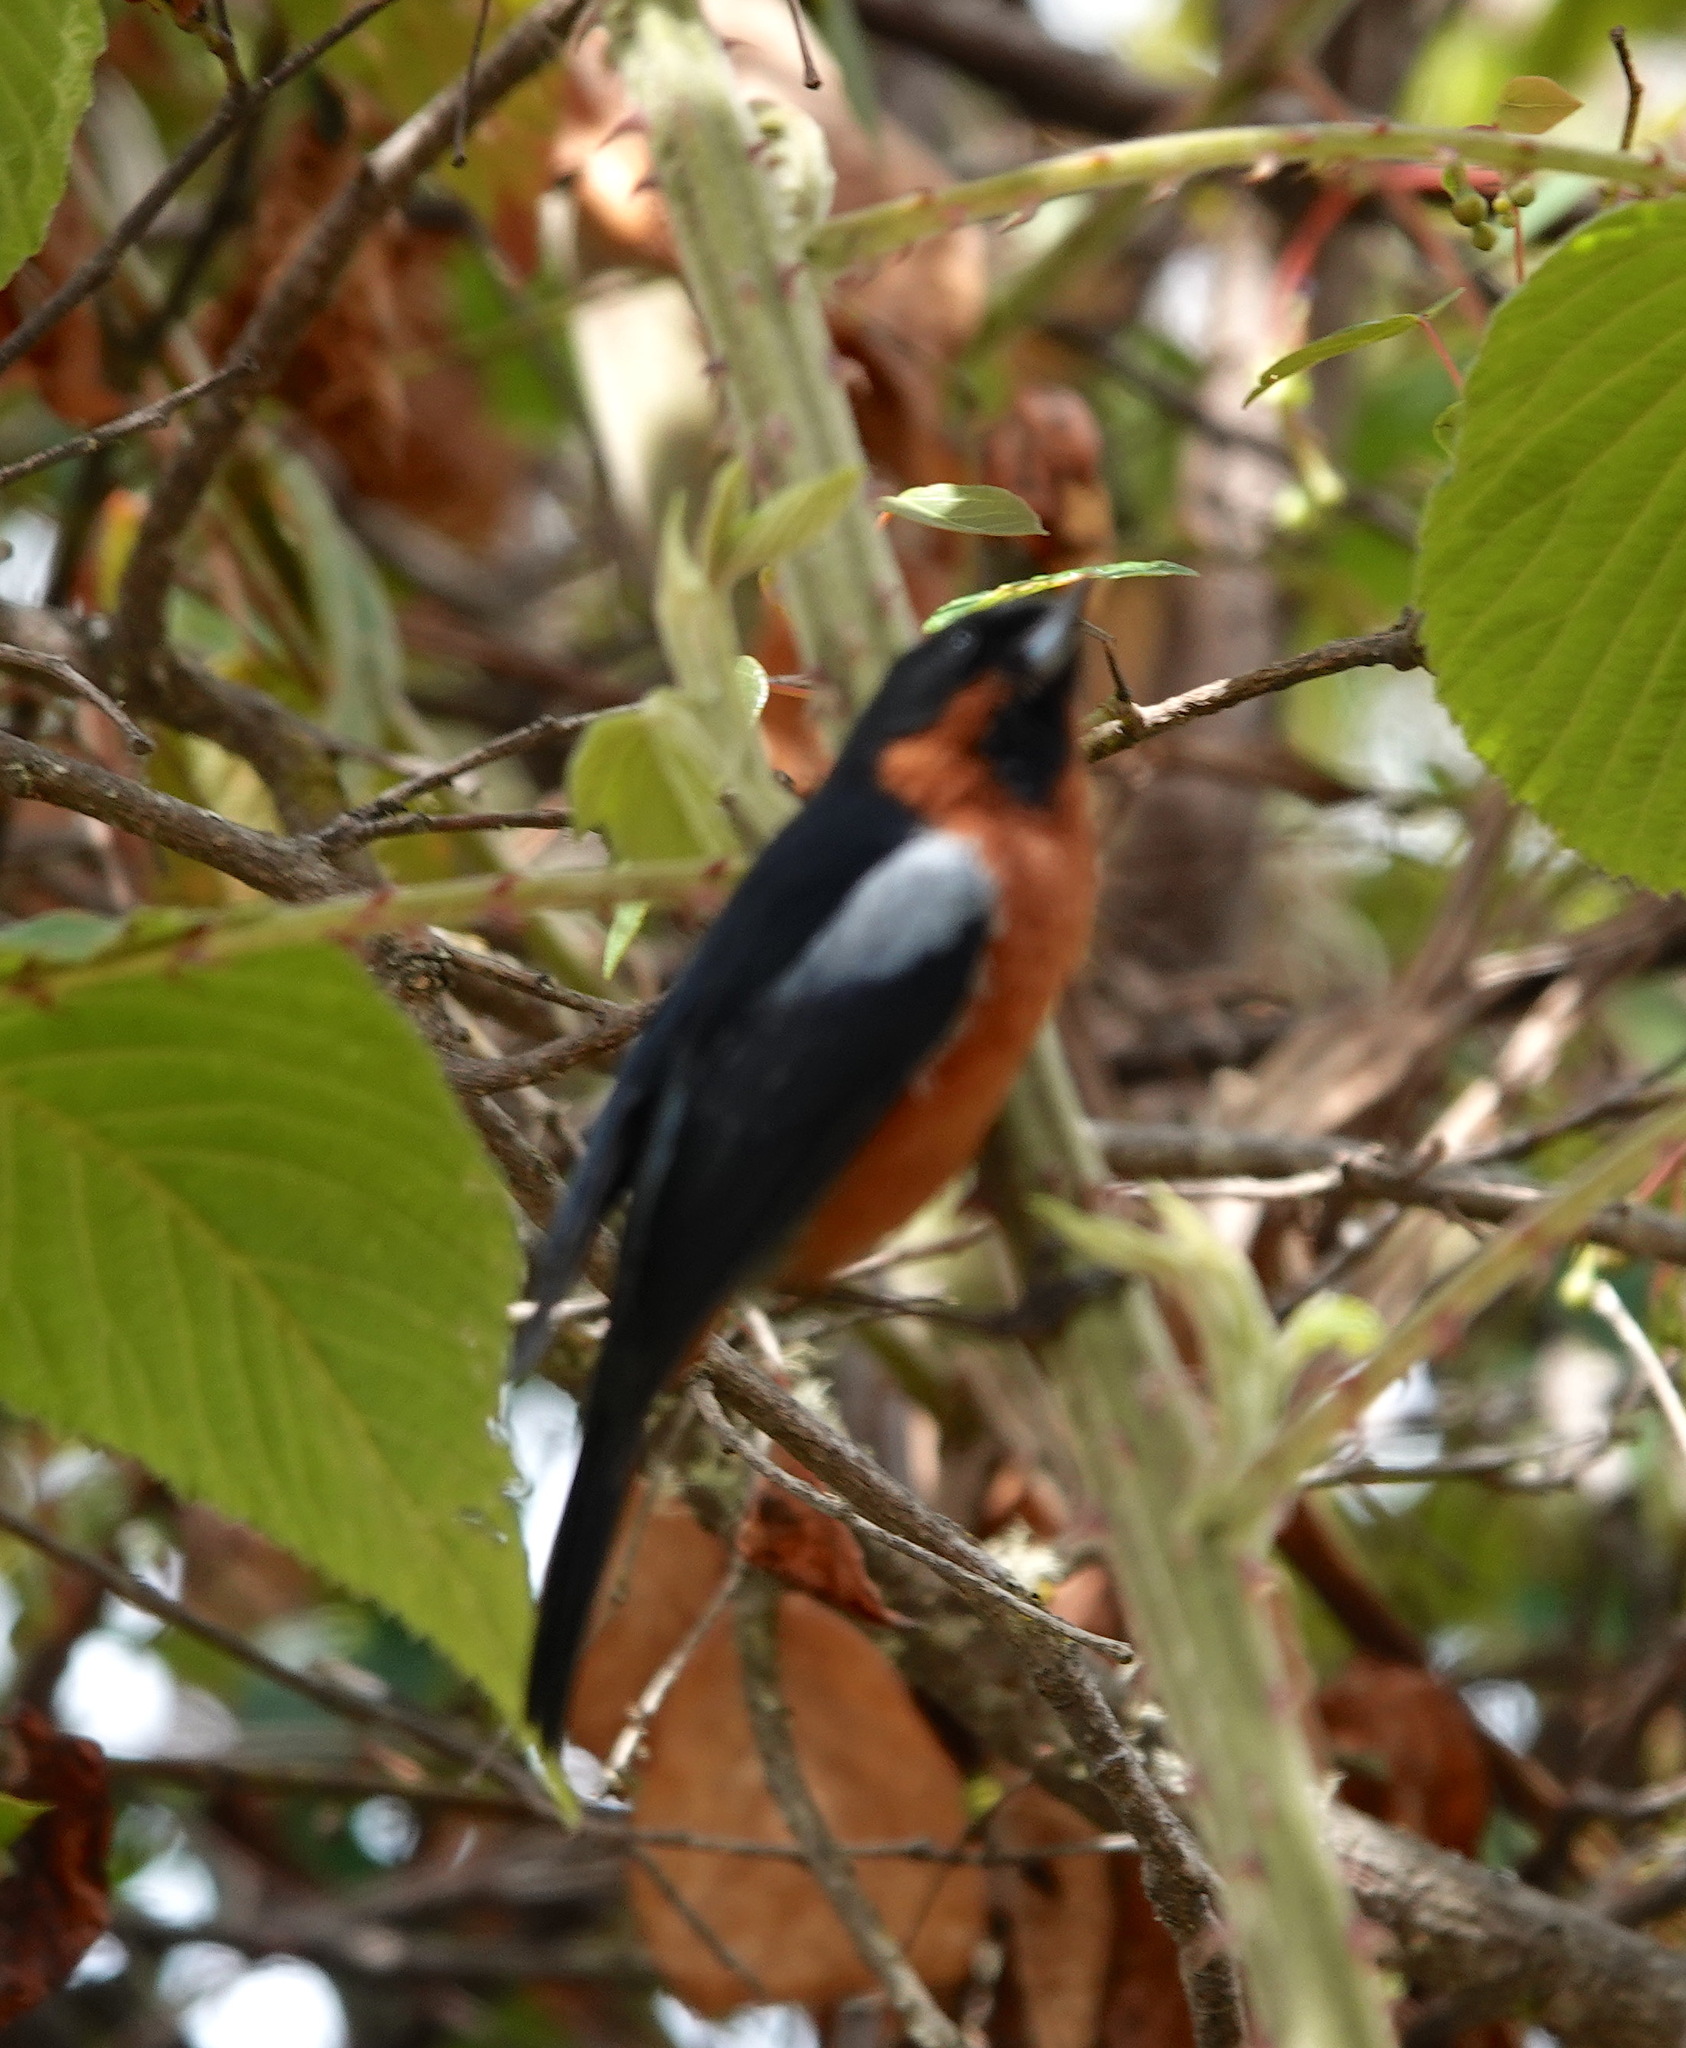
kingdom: Animalia
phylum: Chordata
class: Aves
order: Passeriformes
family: Thraupidae
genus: Diglossa
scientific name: Diglossa brunneiventris
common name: Black-throated flowerpiercer
